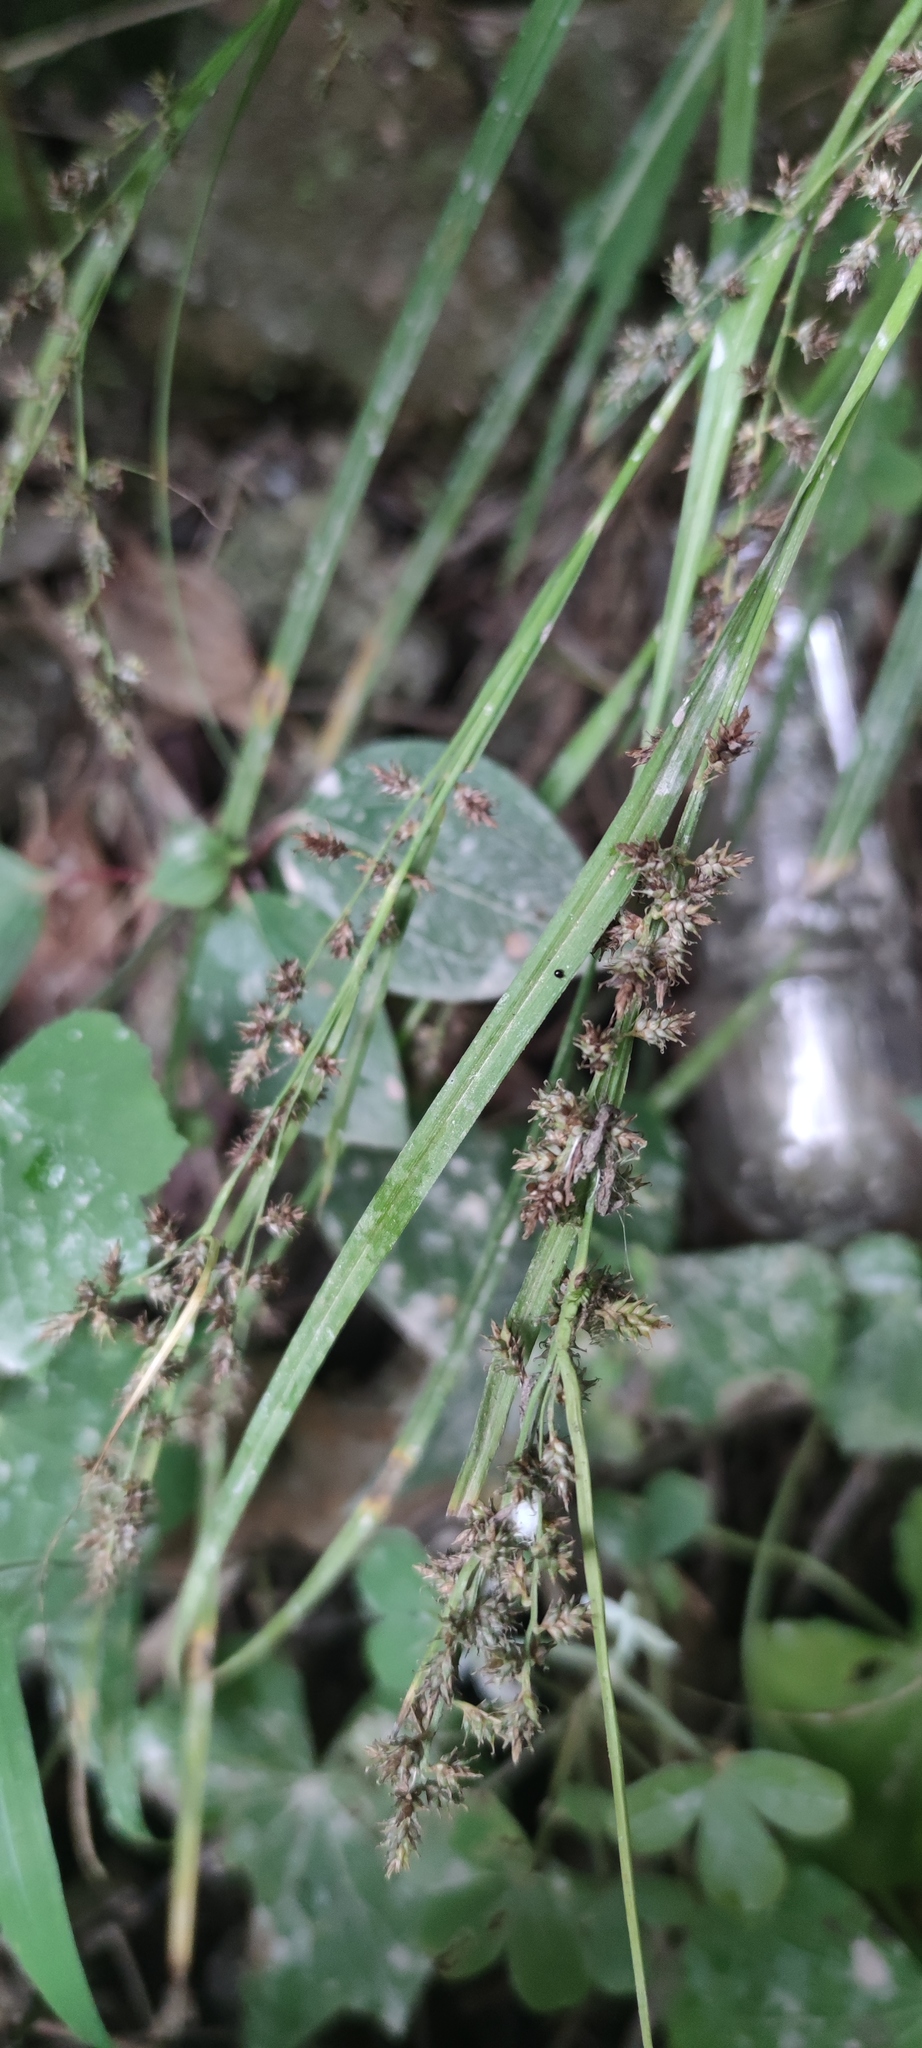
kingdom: Plantae
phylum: Tracheophyta
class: Liliopsida
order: Poales
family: Cyperaceae
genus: Carex
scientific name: Carex polystachya
